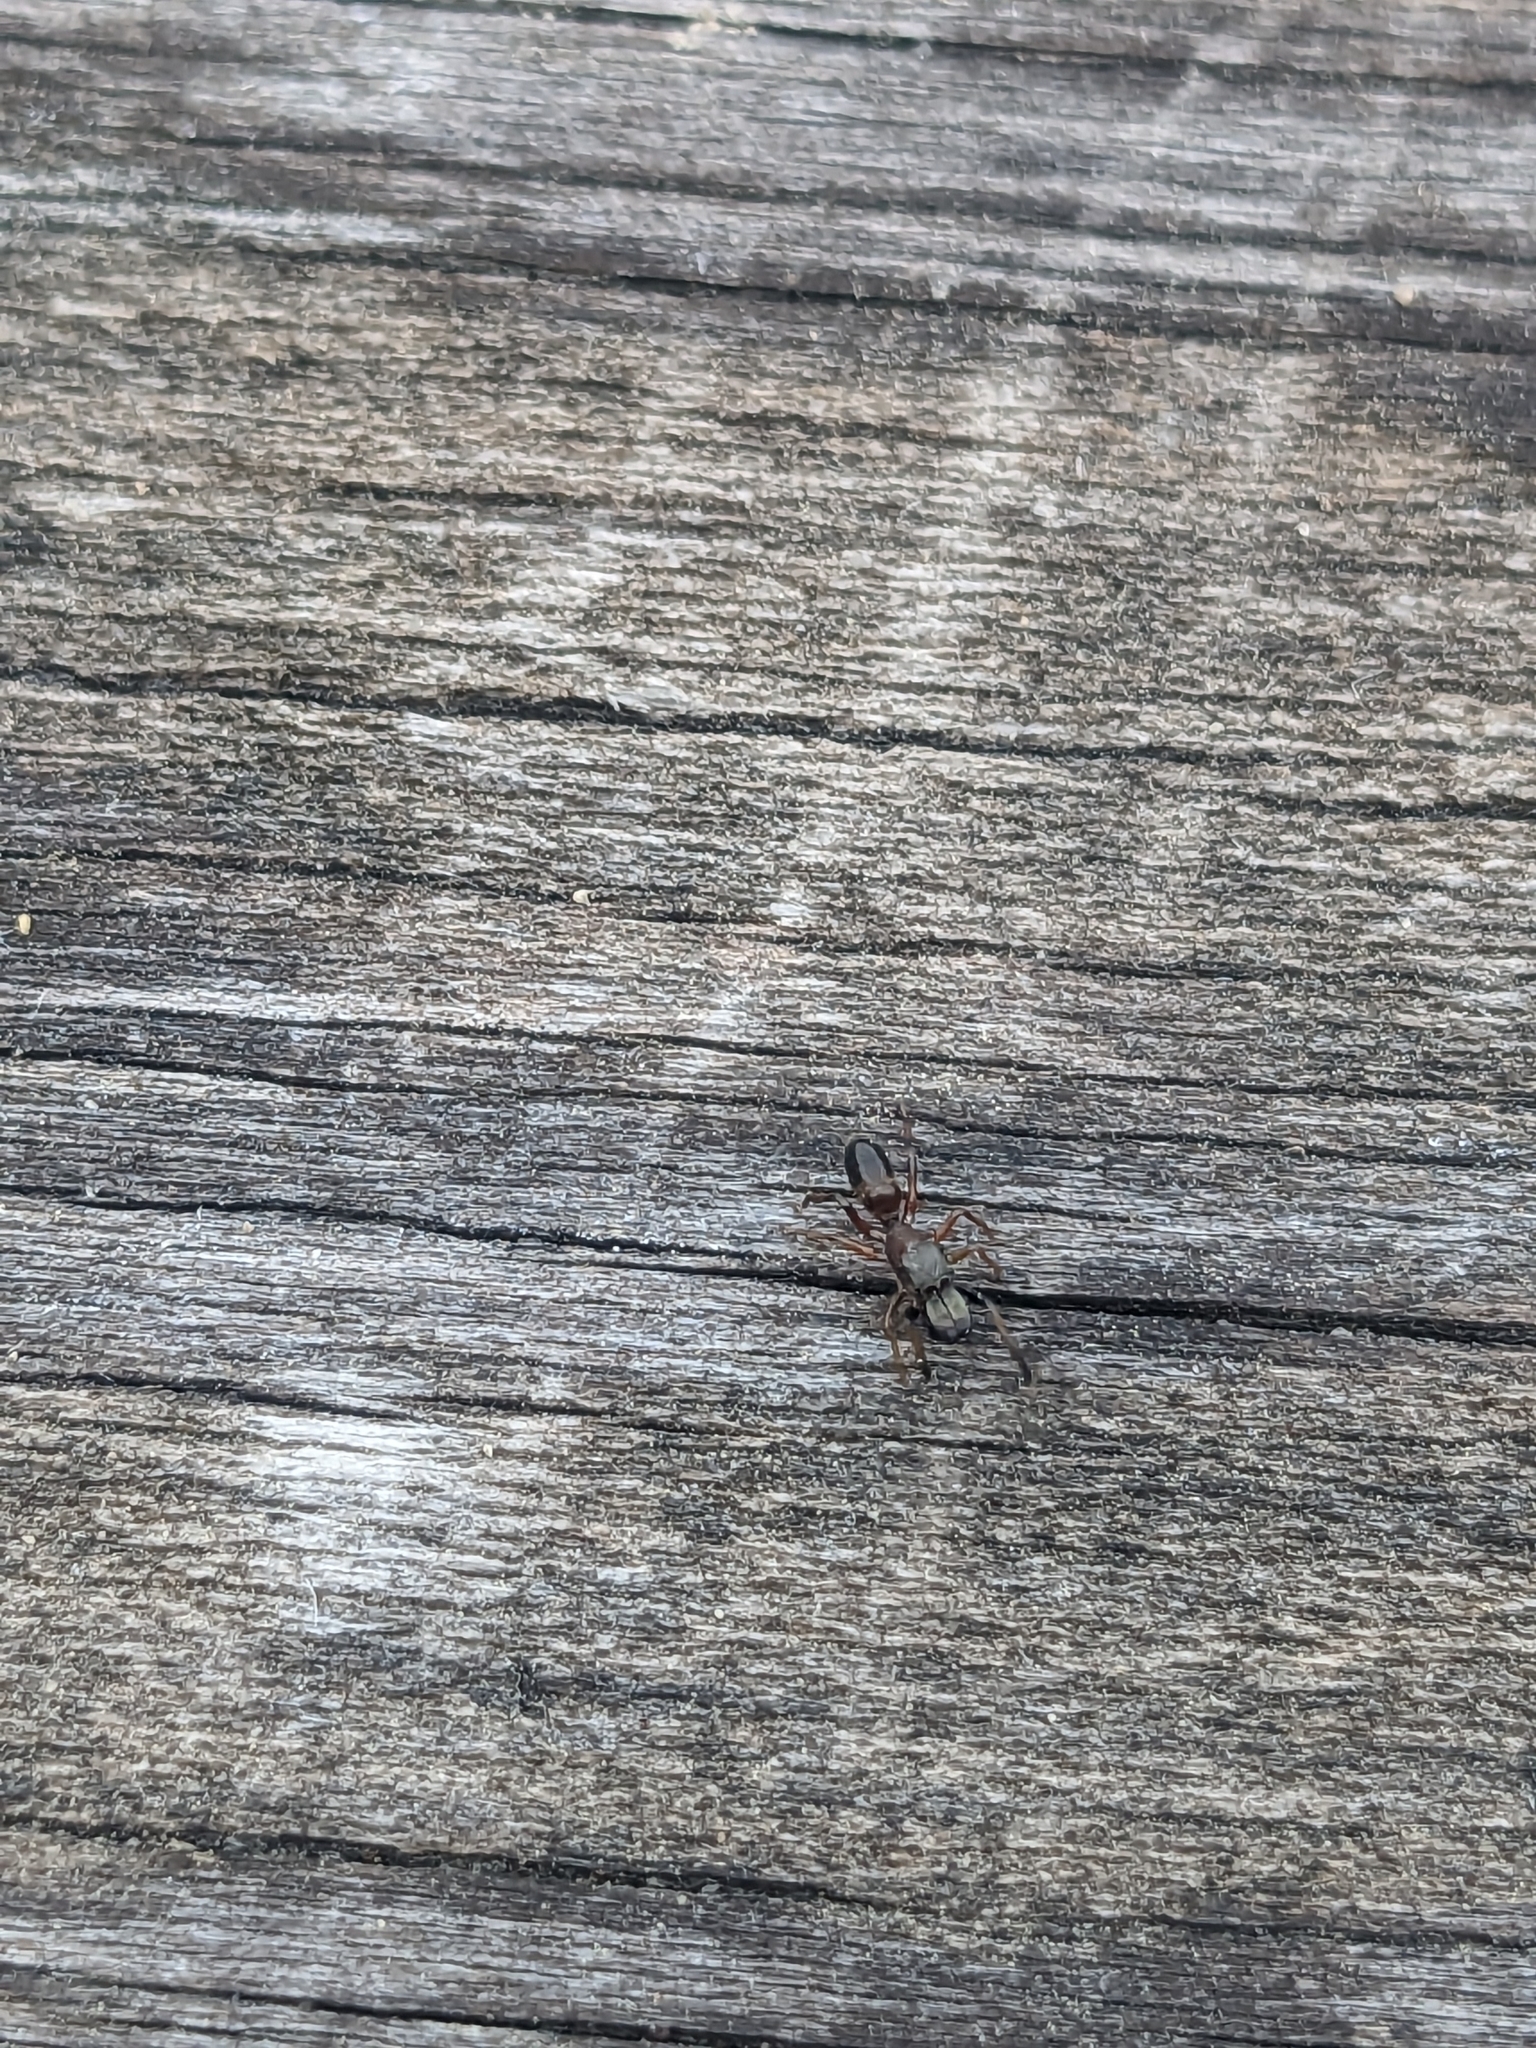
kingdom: Animalia
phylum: Arthropoda
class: Arachnida
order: Araneae
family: Salticidae
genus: Myrmarachne
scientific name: Myrmarachne formicaria
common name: Ant mimic jumping spider
